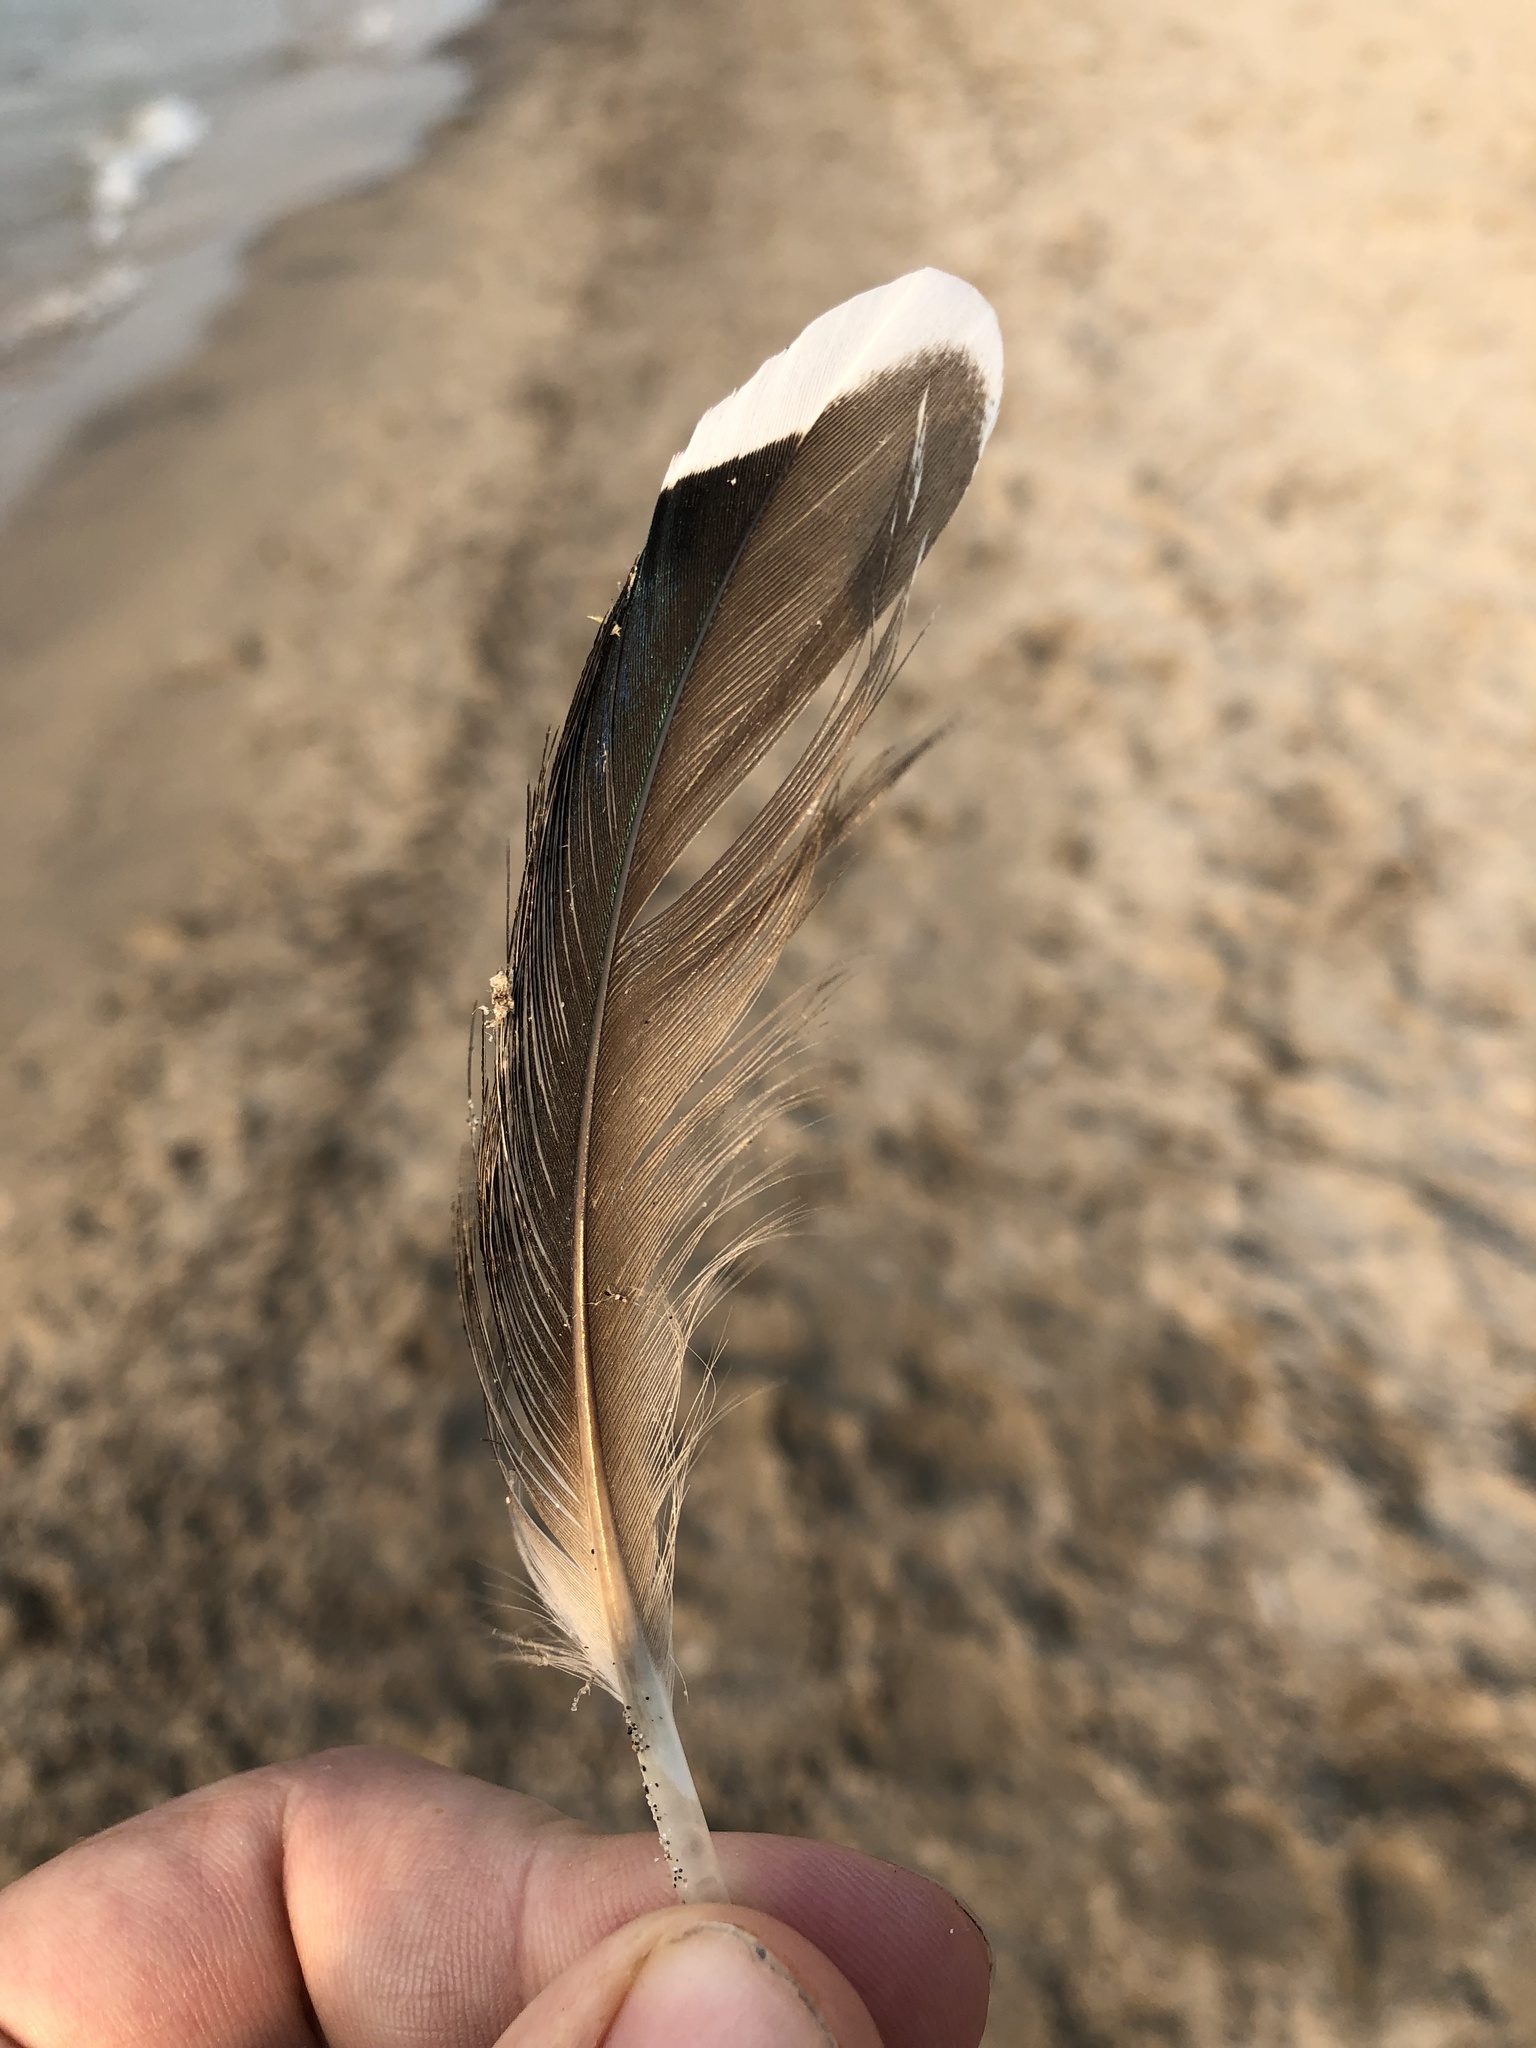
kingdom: Animalia
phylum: Chordata
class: Aves
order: Anseriformes
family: Anatidae
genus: Anas
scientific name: Anas platyrhynchos
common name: Mallard
